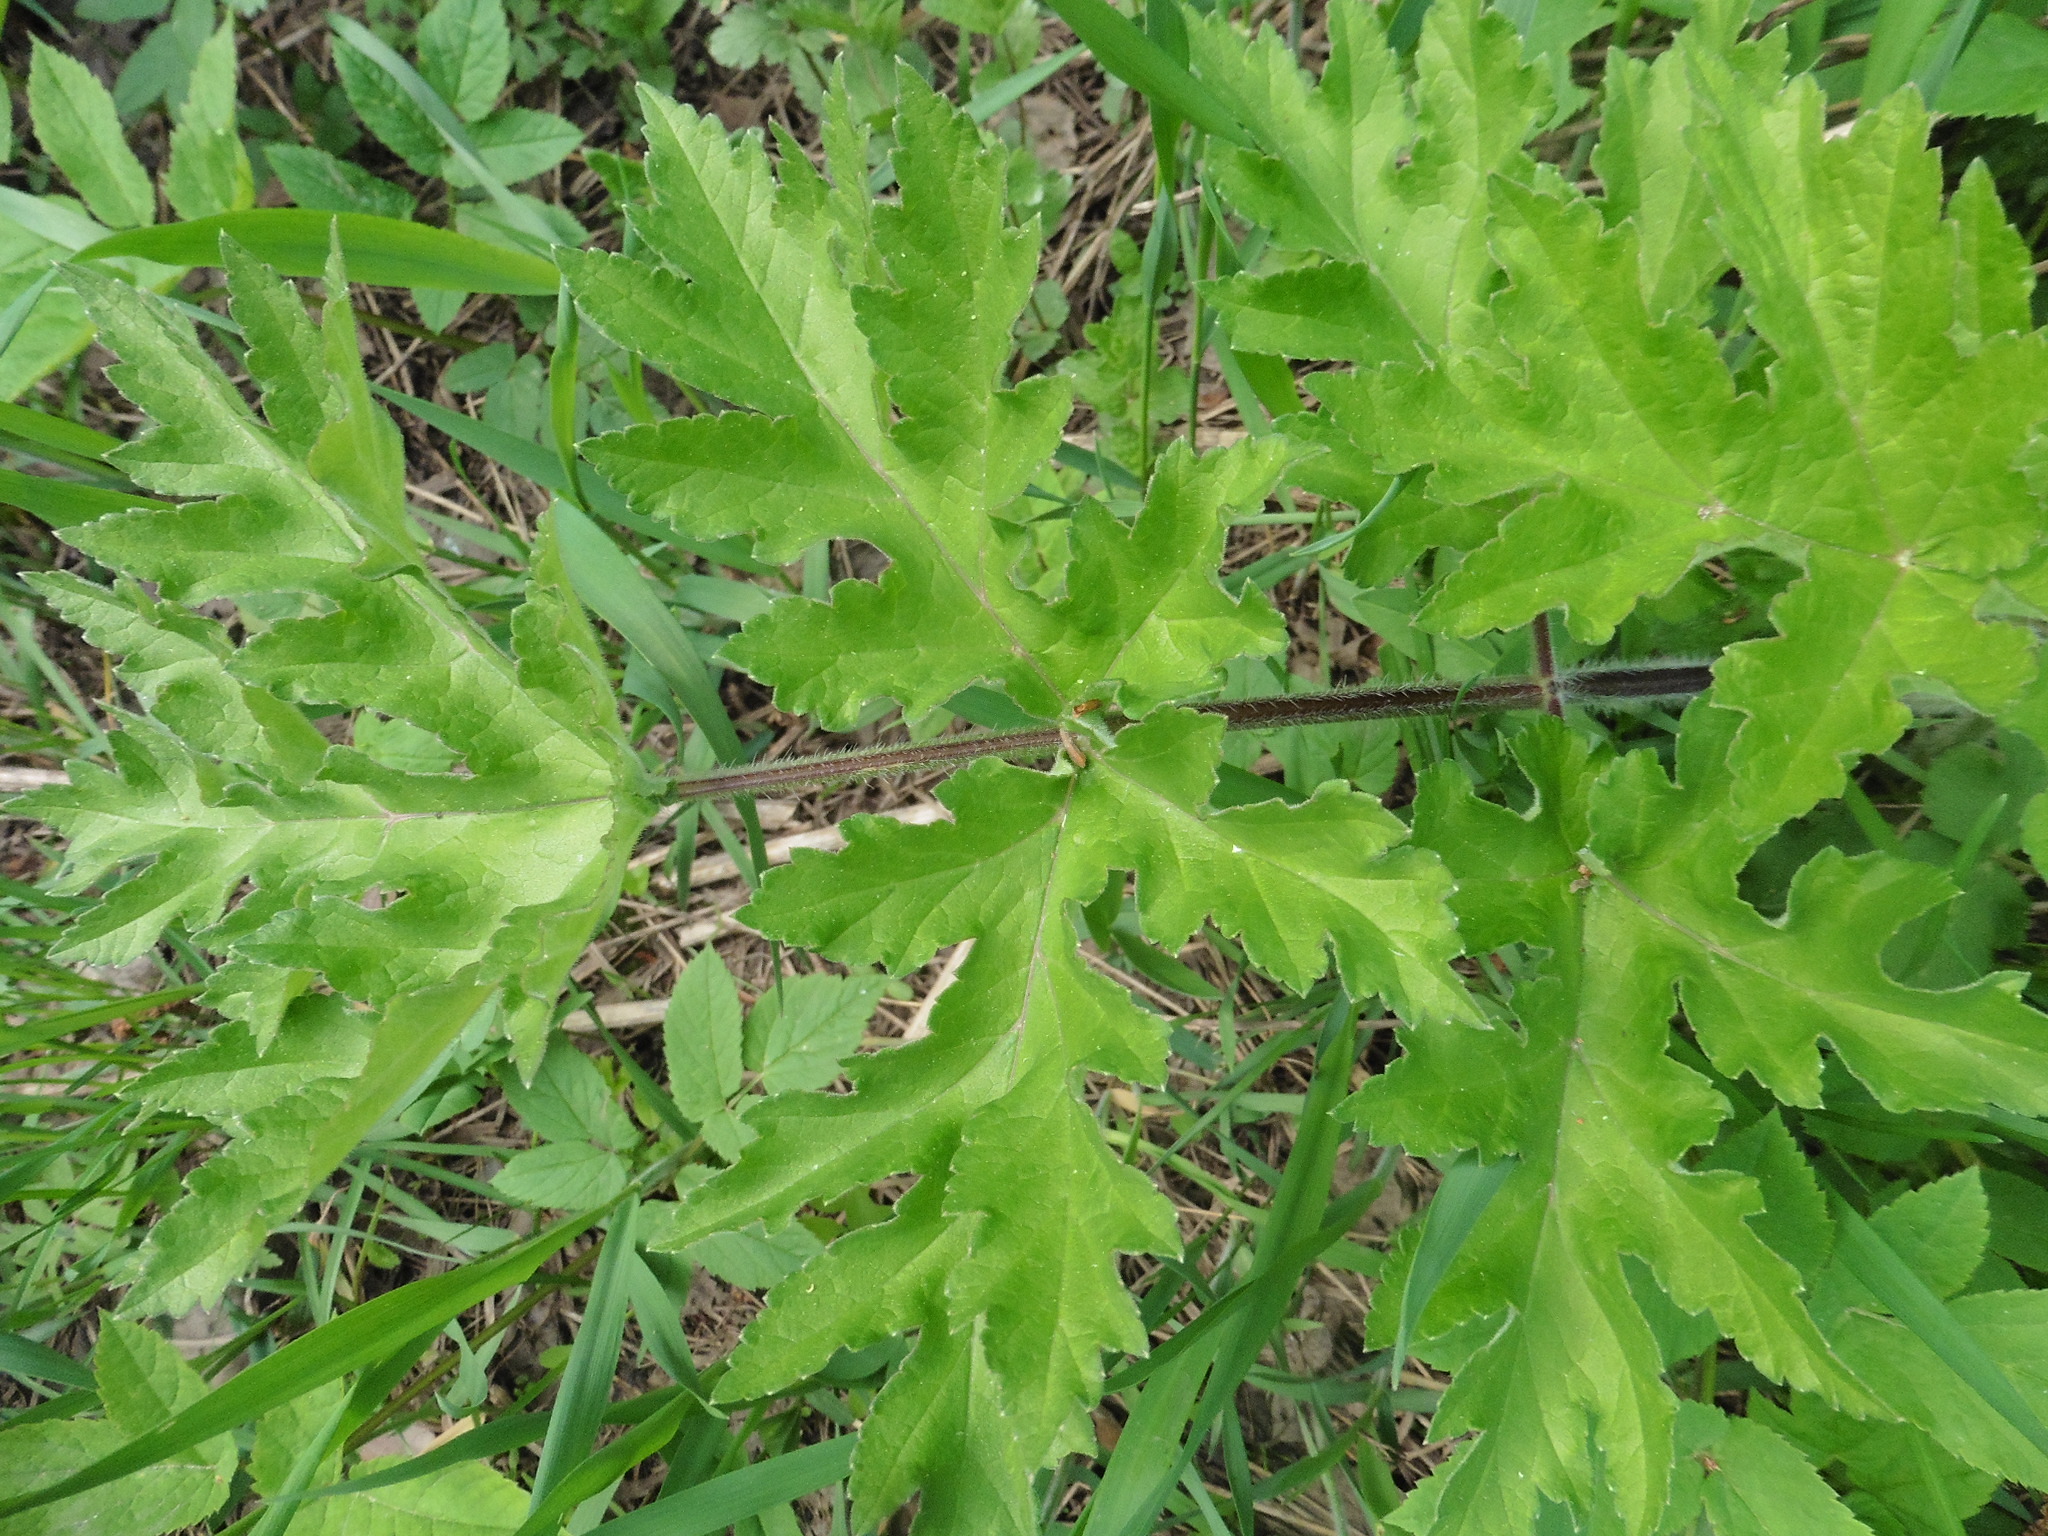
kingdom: Plantae
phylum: Tracheophyta
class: Magnoliopsida
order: Apiales
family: Apiaceae
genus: Heracleum
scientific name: Heracleum sphondylium
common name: Hogweed
